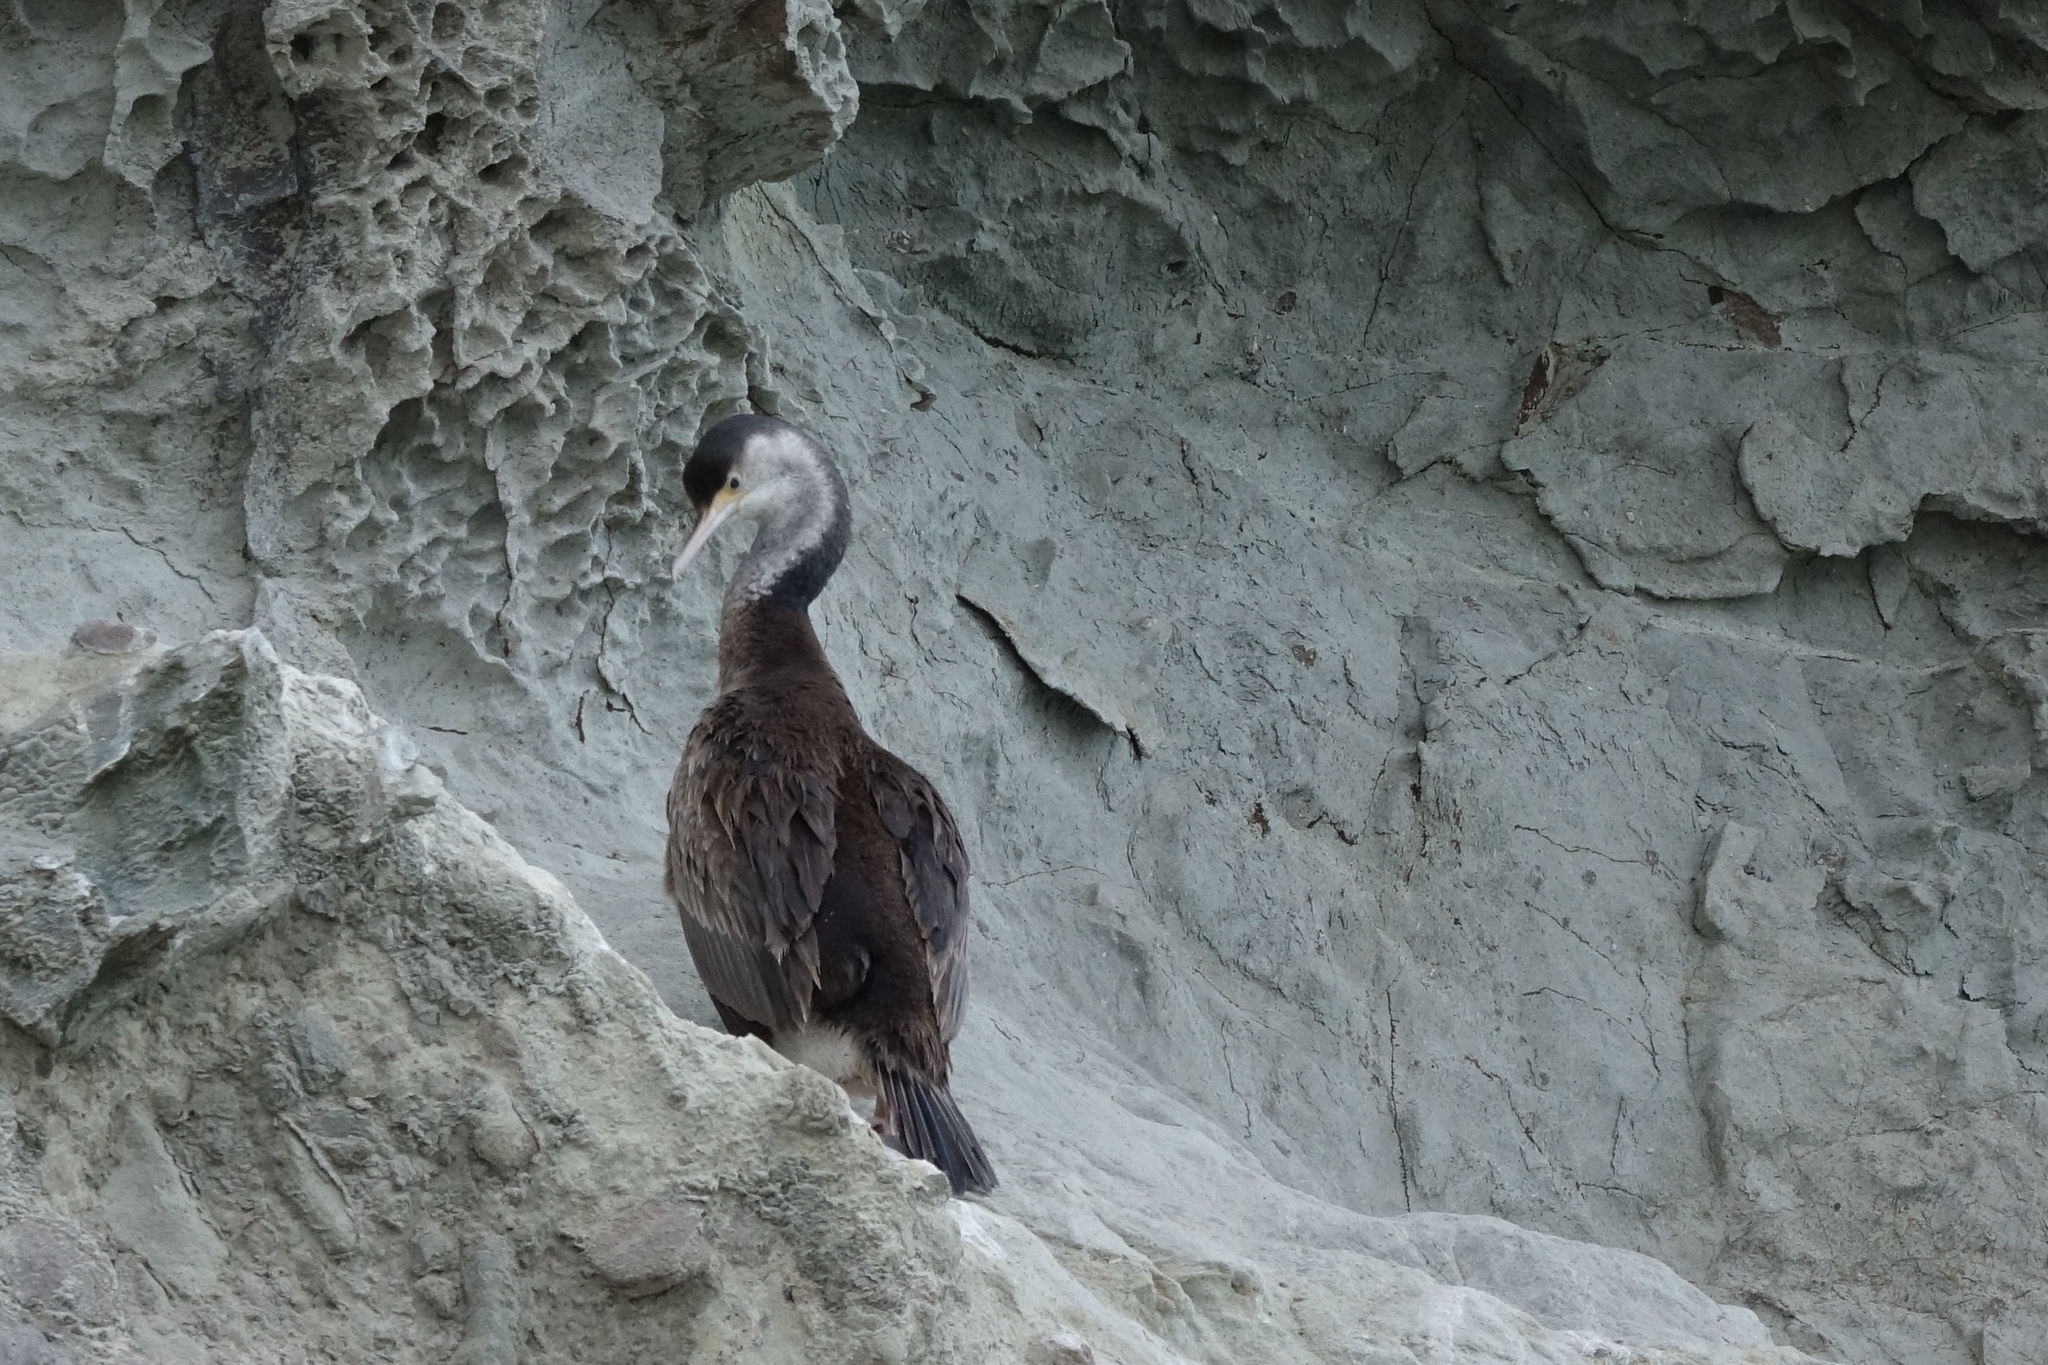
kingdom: Animalia
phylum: Chordata
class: Aves
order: Suliformes
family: Phalacrocoracidae
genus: Phalacrocorax
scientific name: Phalacrocorax punctatus
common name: Spotted shag
